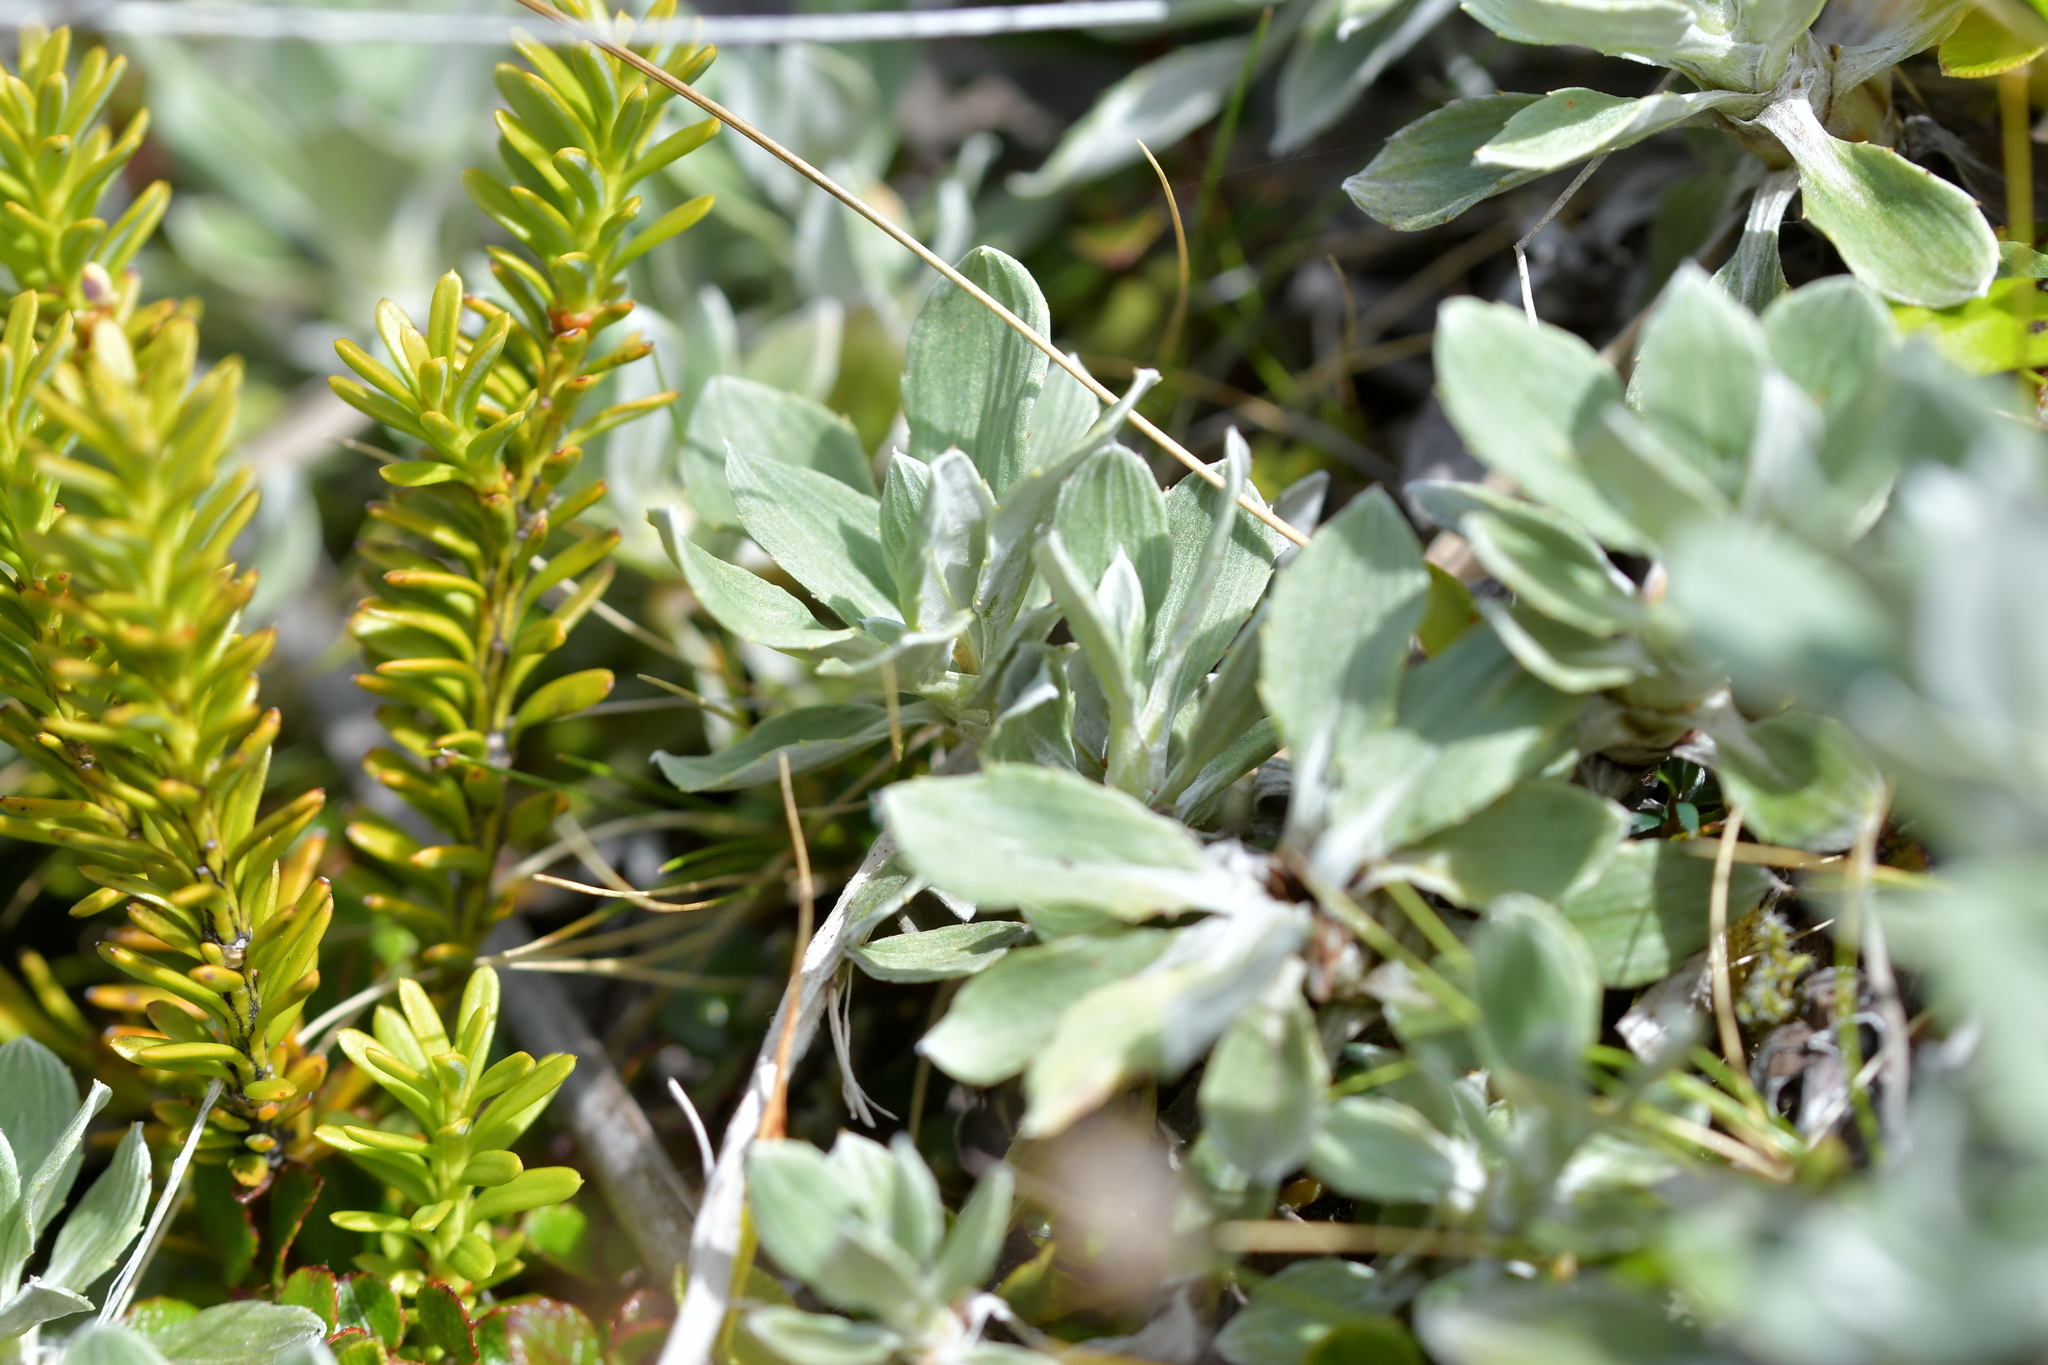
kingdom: Plantae
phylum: Tracheophyta
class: Magnoliopsida
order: Asterales
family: Asteraceae
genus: Celmisia
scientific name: Celmisia discolor
